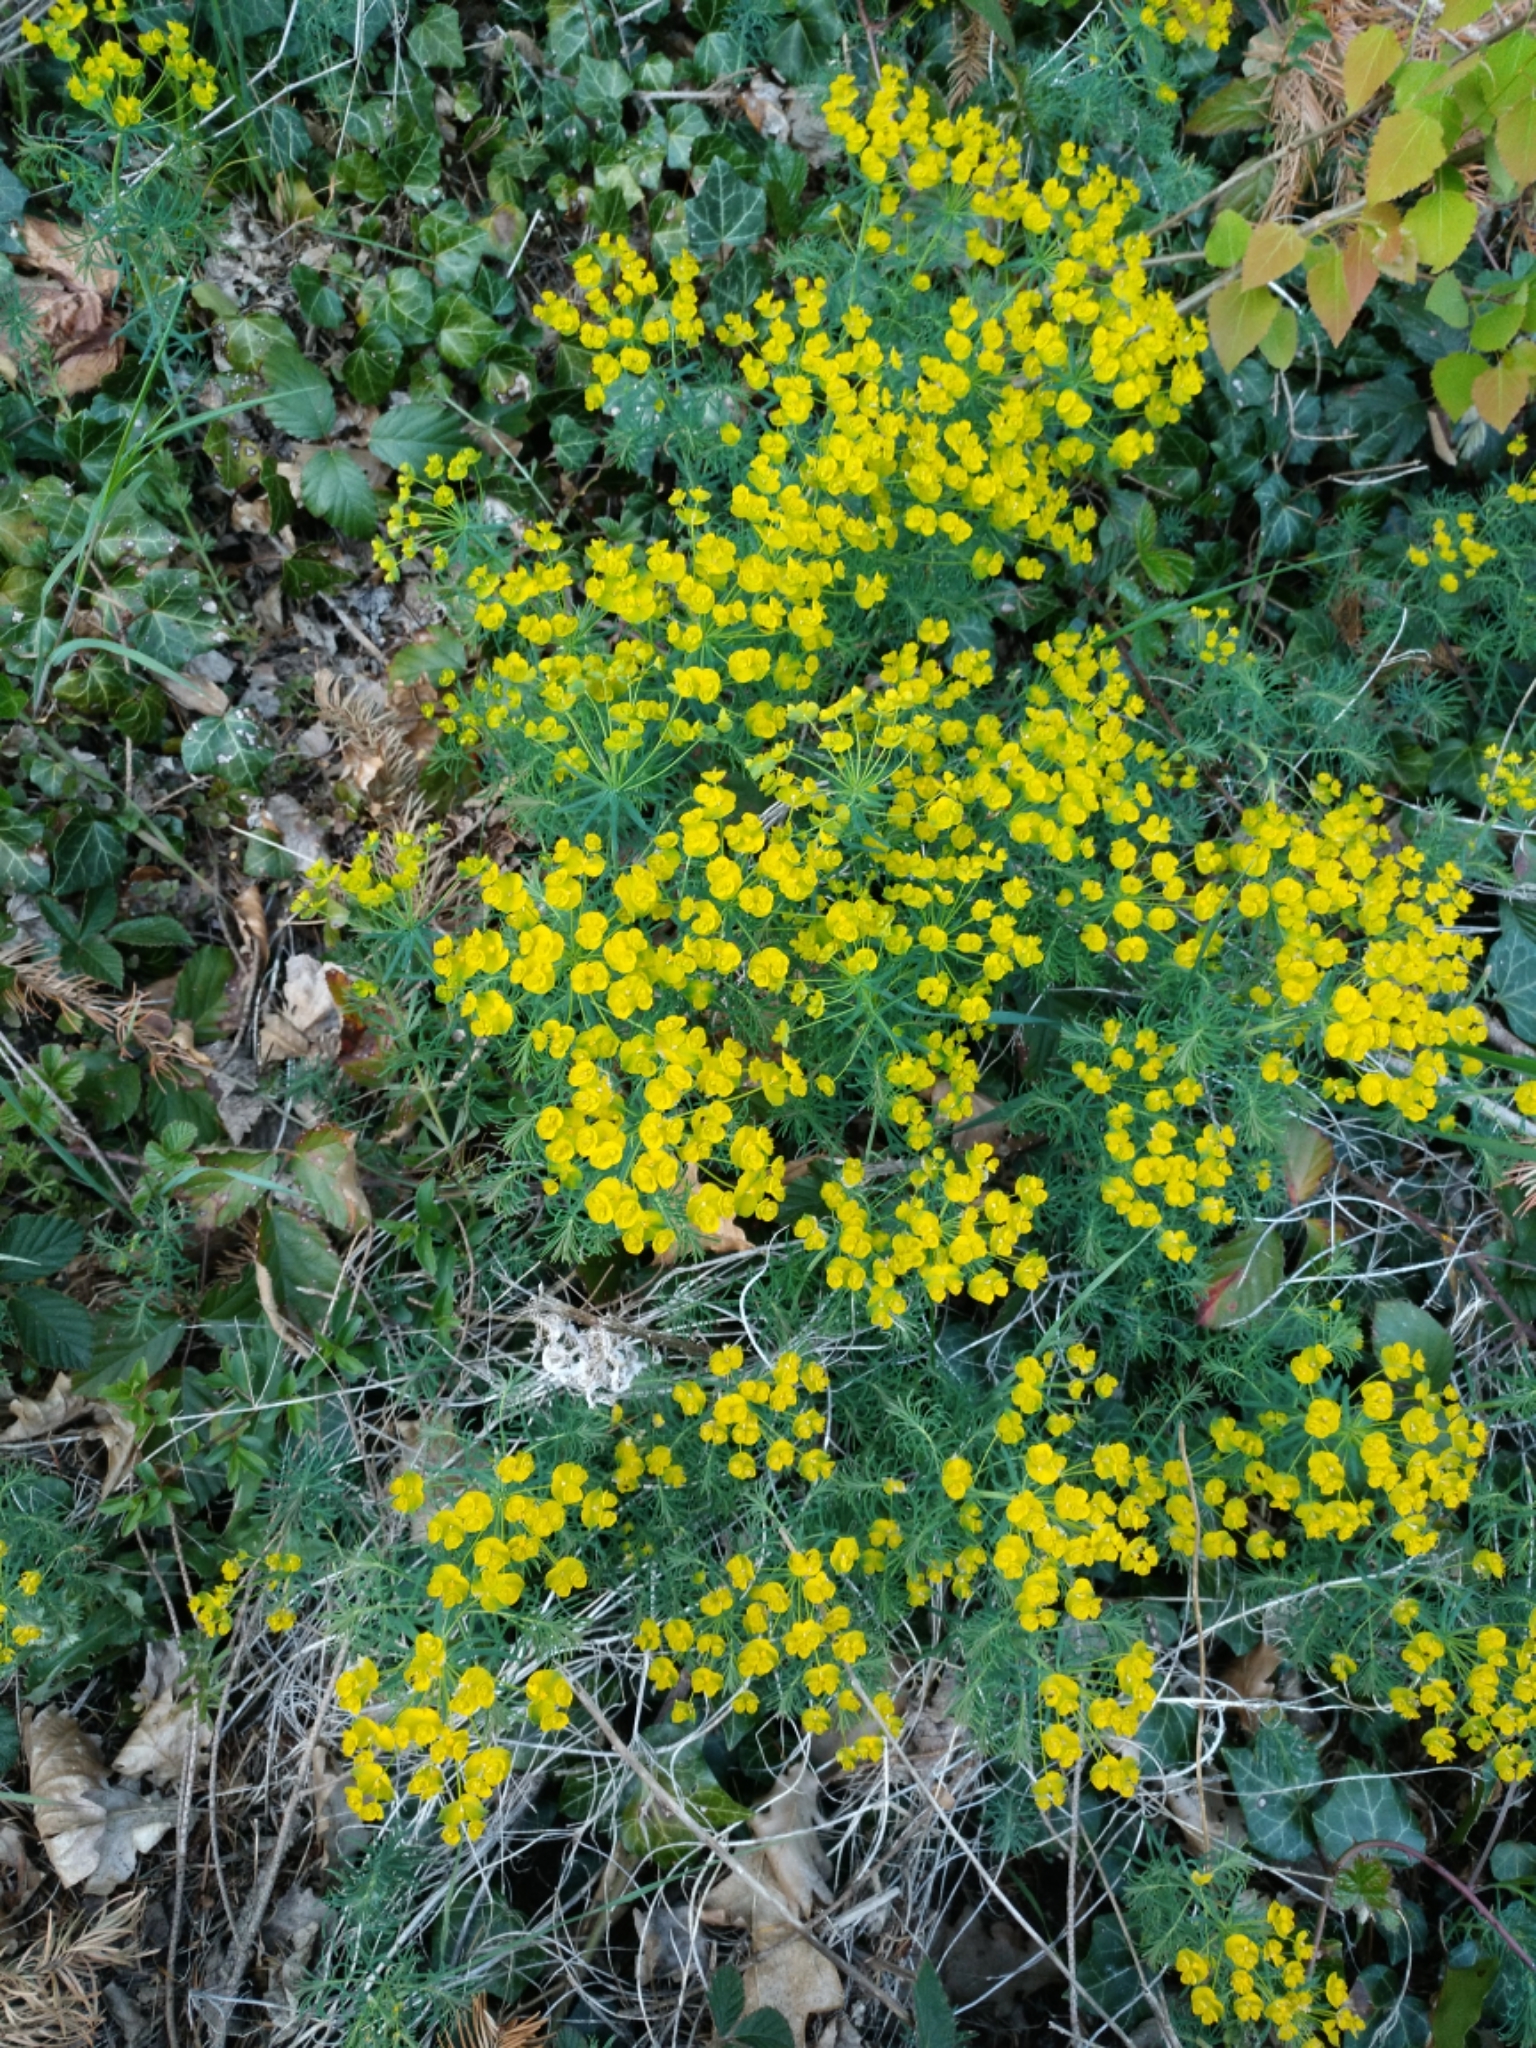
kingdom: Plantae
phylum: Tracheophyta
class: Magnoliopsida
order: Malpighiales
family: Euphorbiaceae
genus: Euphorbia
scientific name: Euphorbia cyparissias
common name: Cypress spurge
